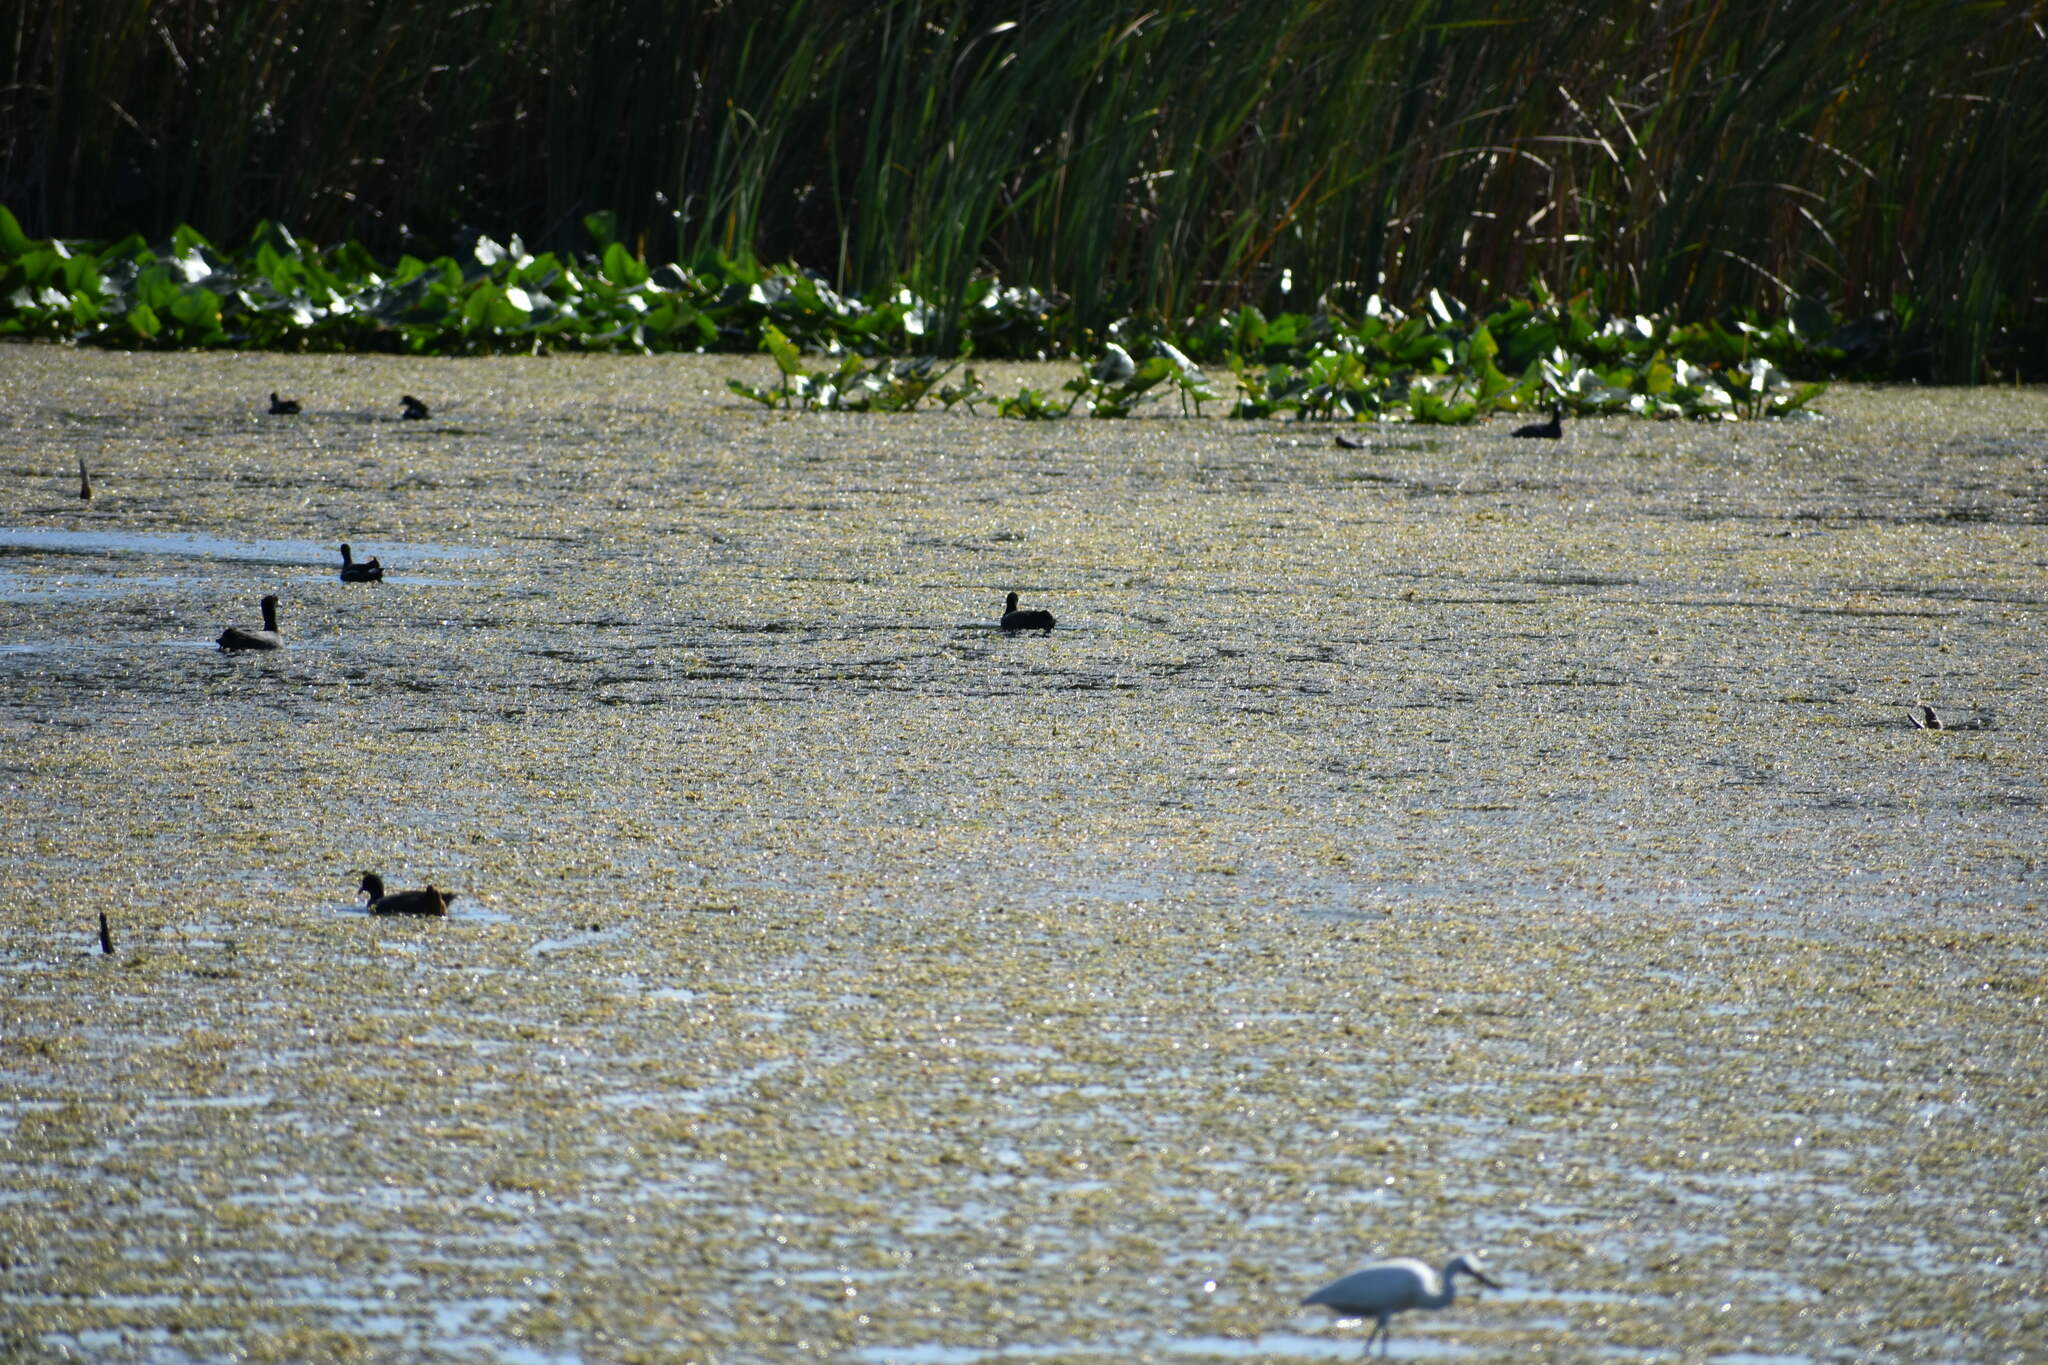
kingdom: Animalia
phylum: Chordata
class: Aves
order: Gruiformes
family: Rallidae
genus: Gallinula
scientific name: Gallinula chloropus
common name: Common moorhen
